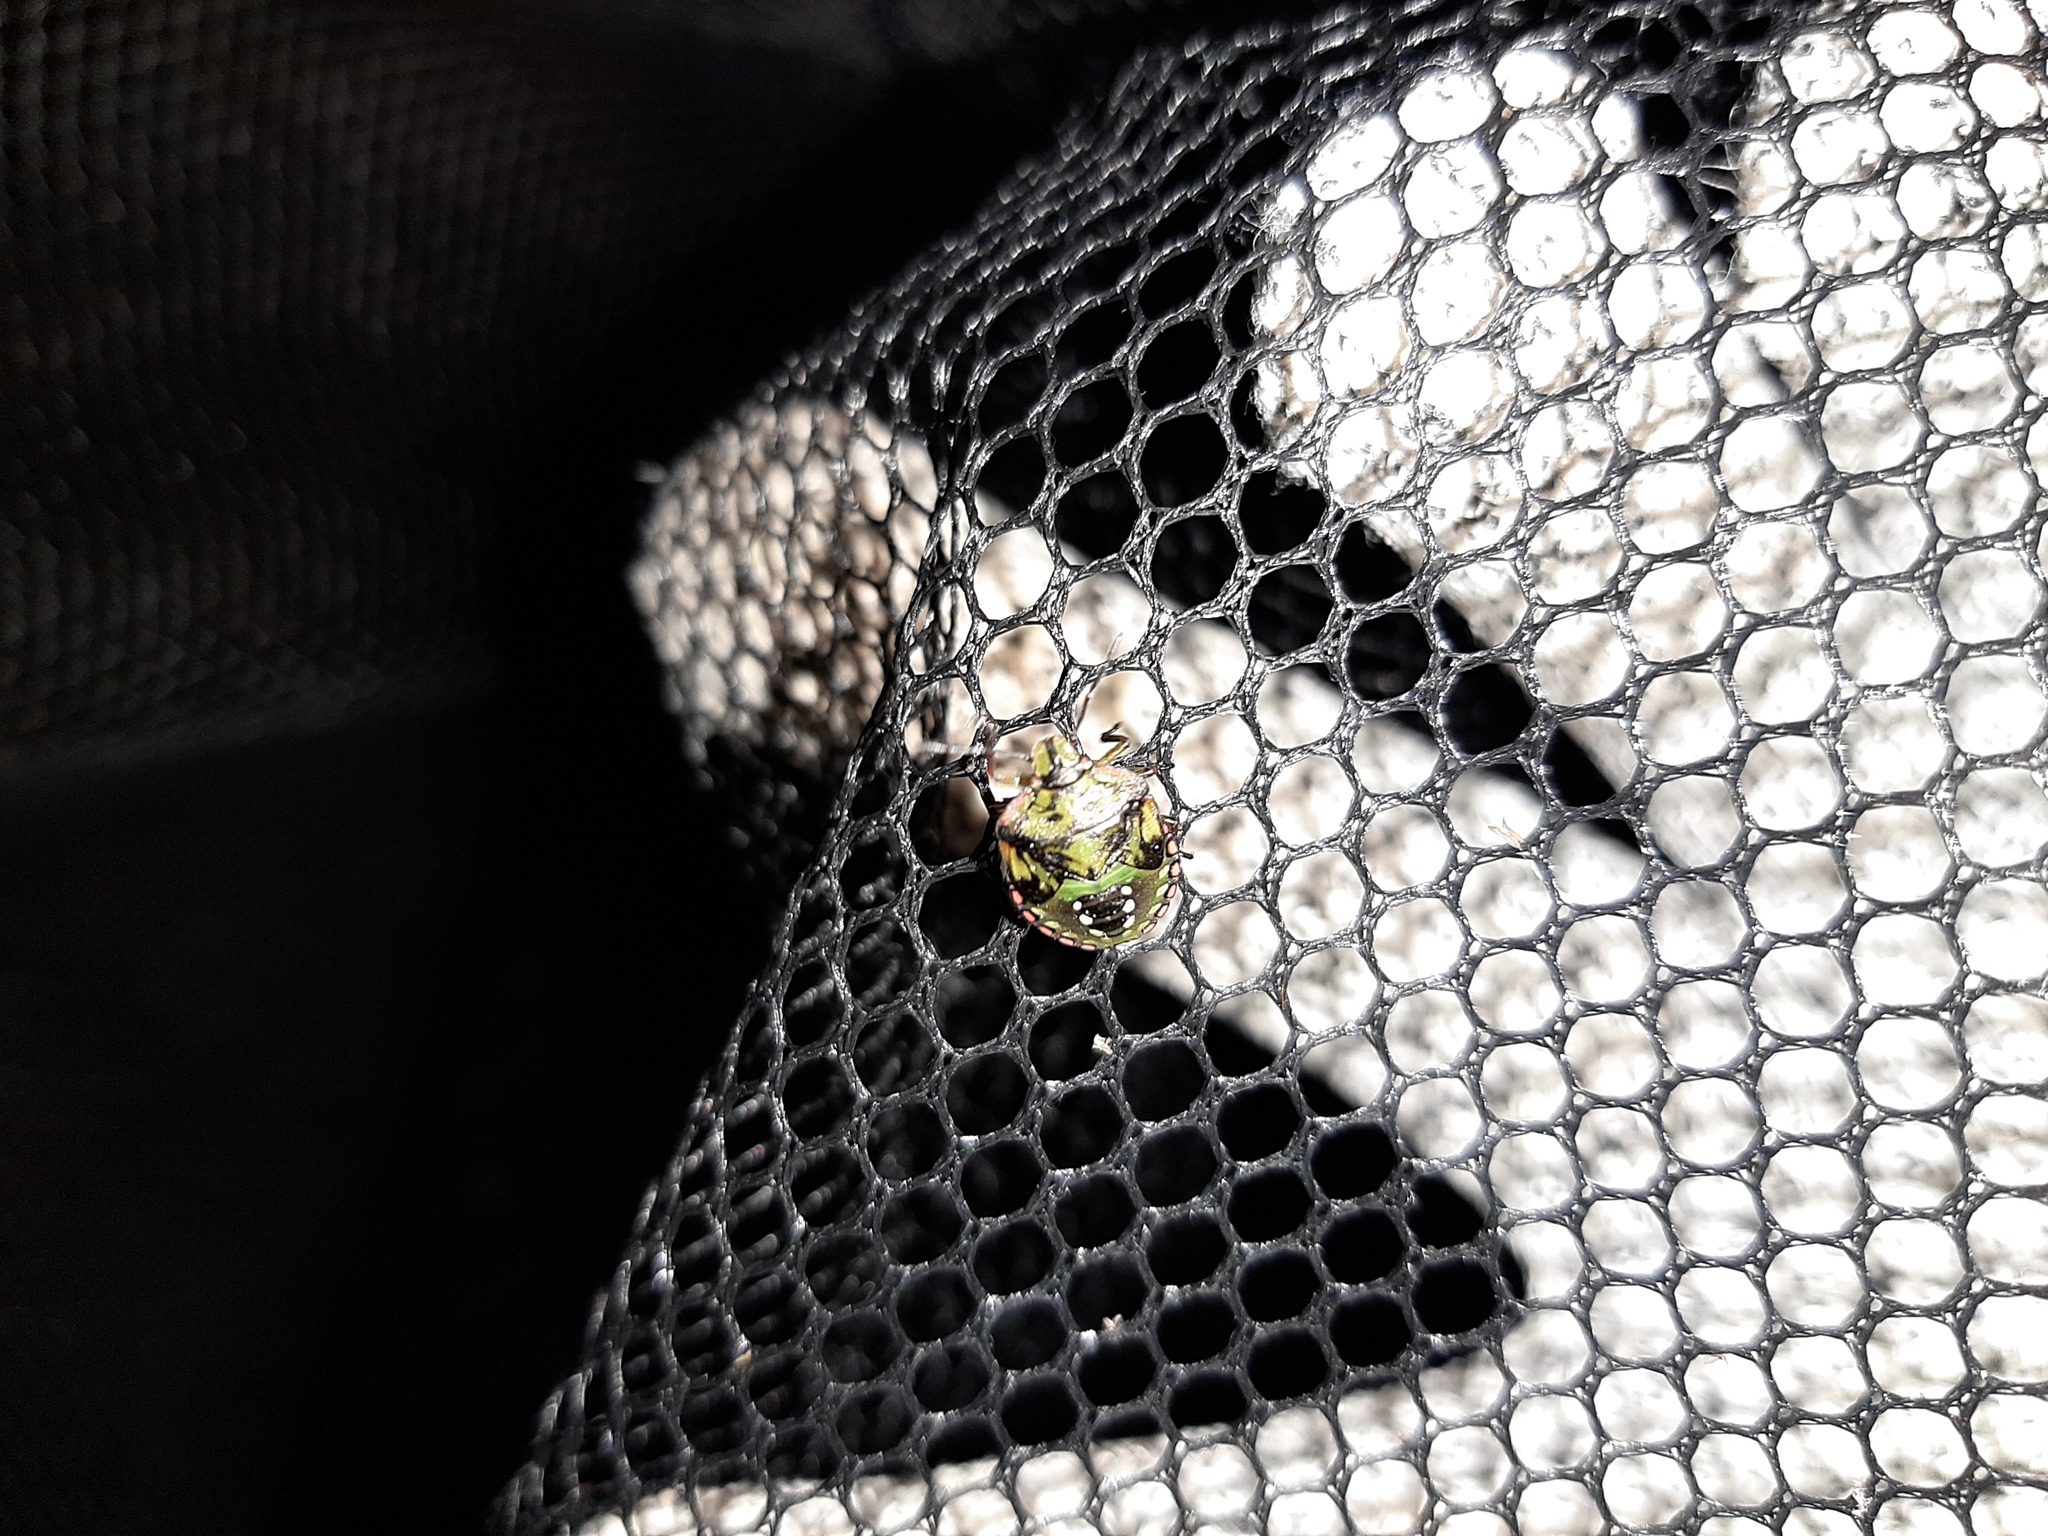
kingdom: Animalia
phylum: Arthropoda
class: Insecta
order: Hemiptera
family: Pentatomidae
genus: Nezara
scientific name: Nezara viridula
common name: Southern green stink bug
